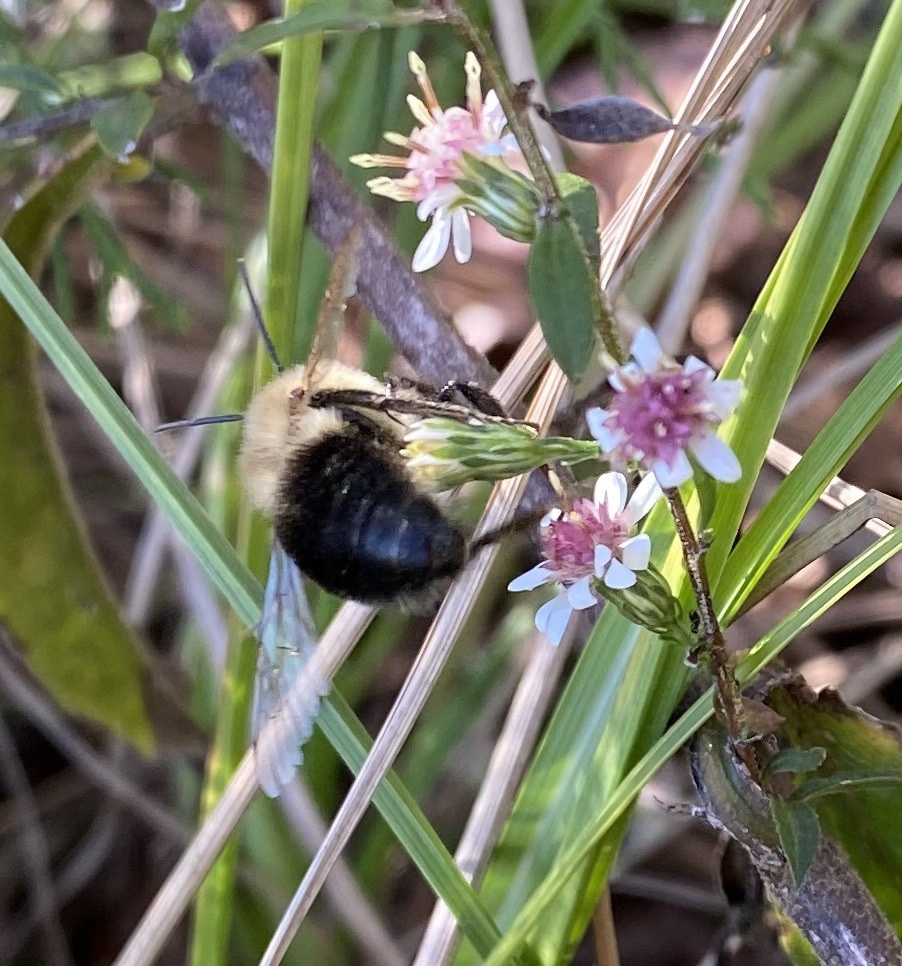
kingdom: Animalia
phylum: Arthropoda
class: Insecta
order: Hymenoptera
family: Apidae
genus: Bombus
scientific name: Bombus impatiens
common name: Common eastern bumble bee
